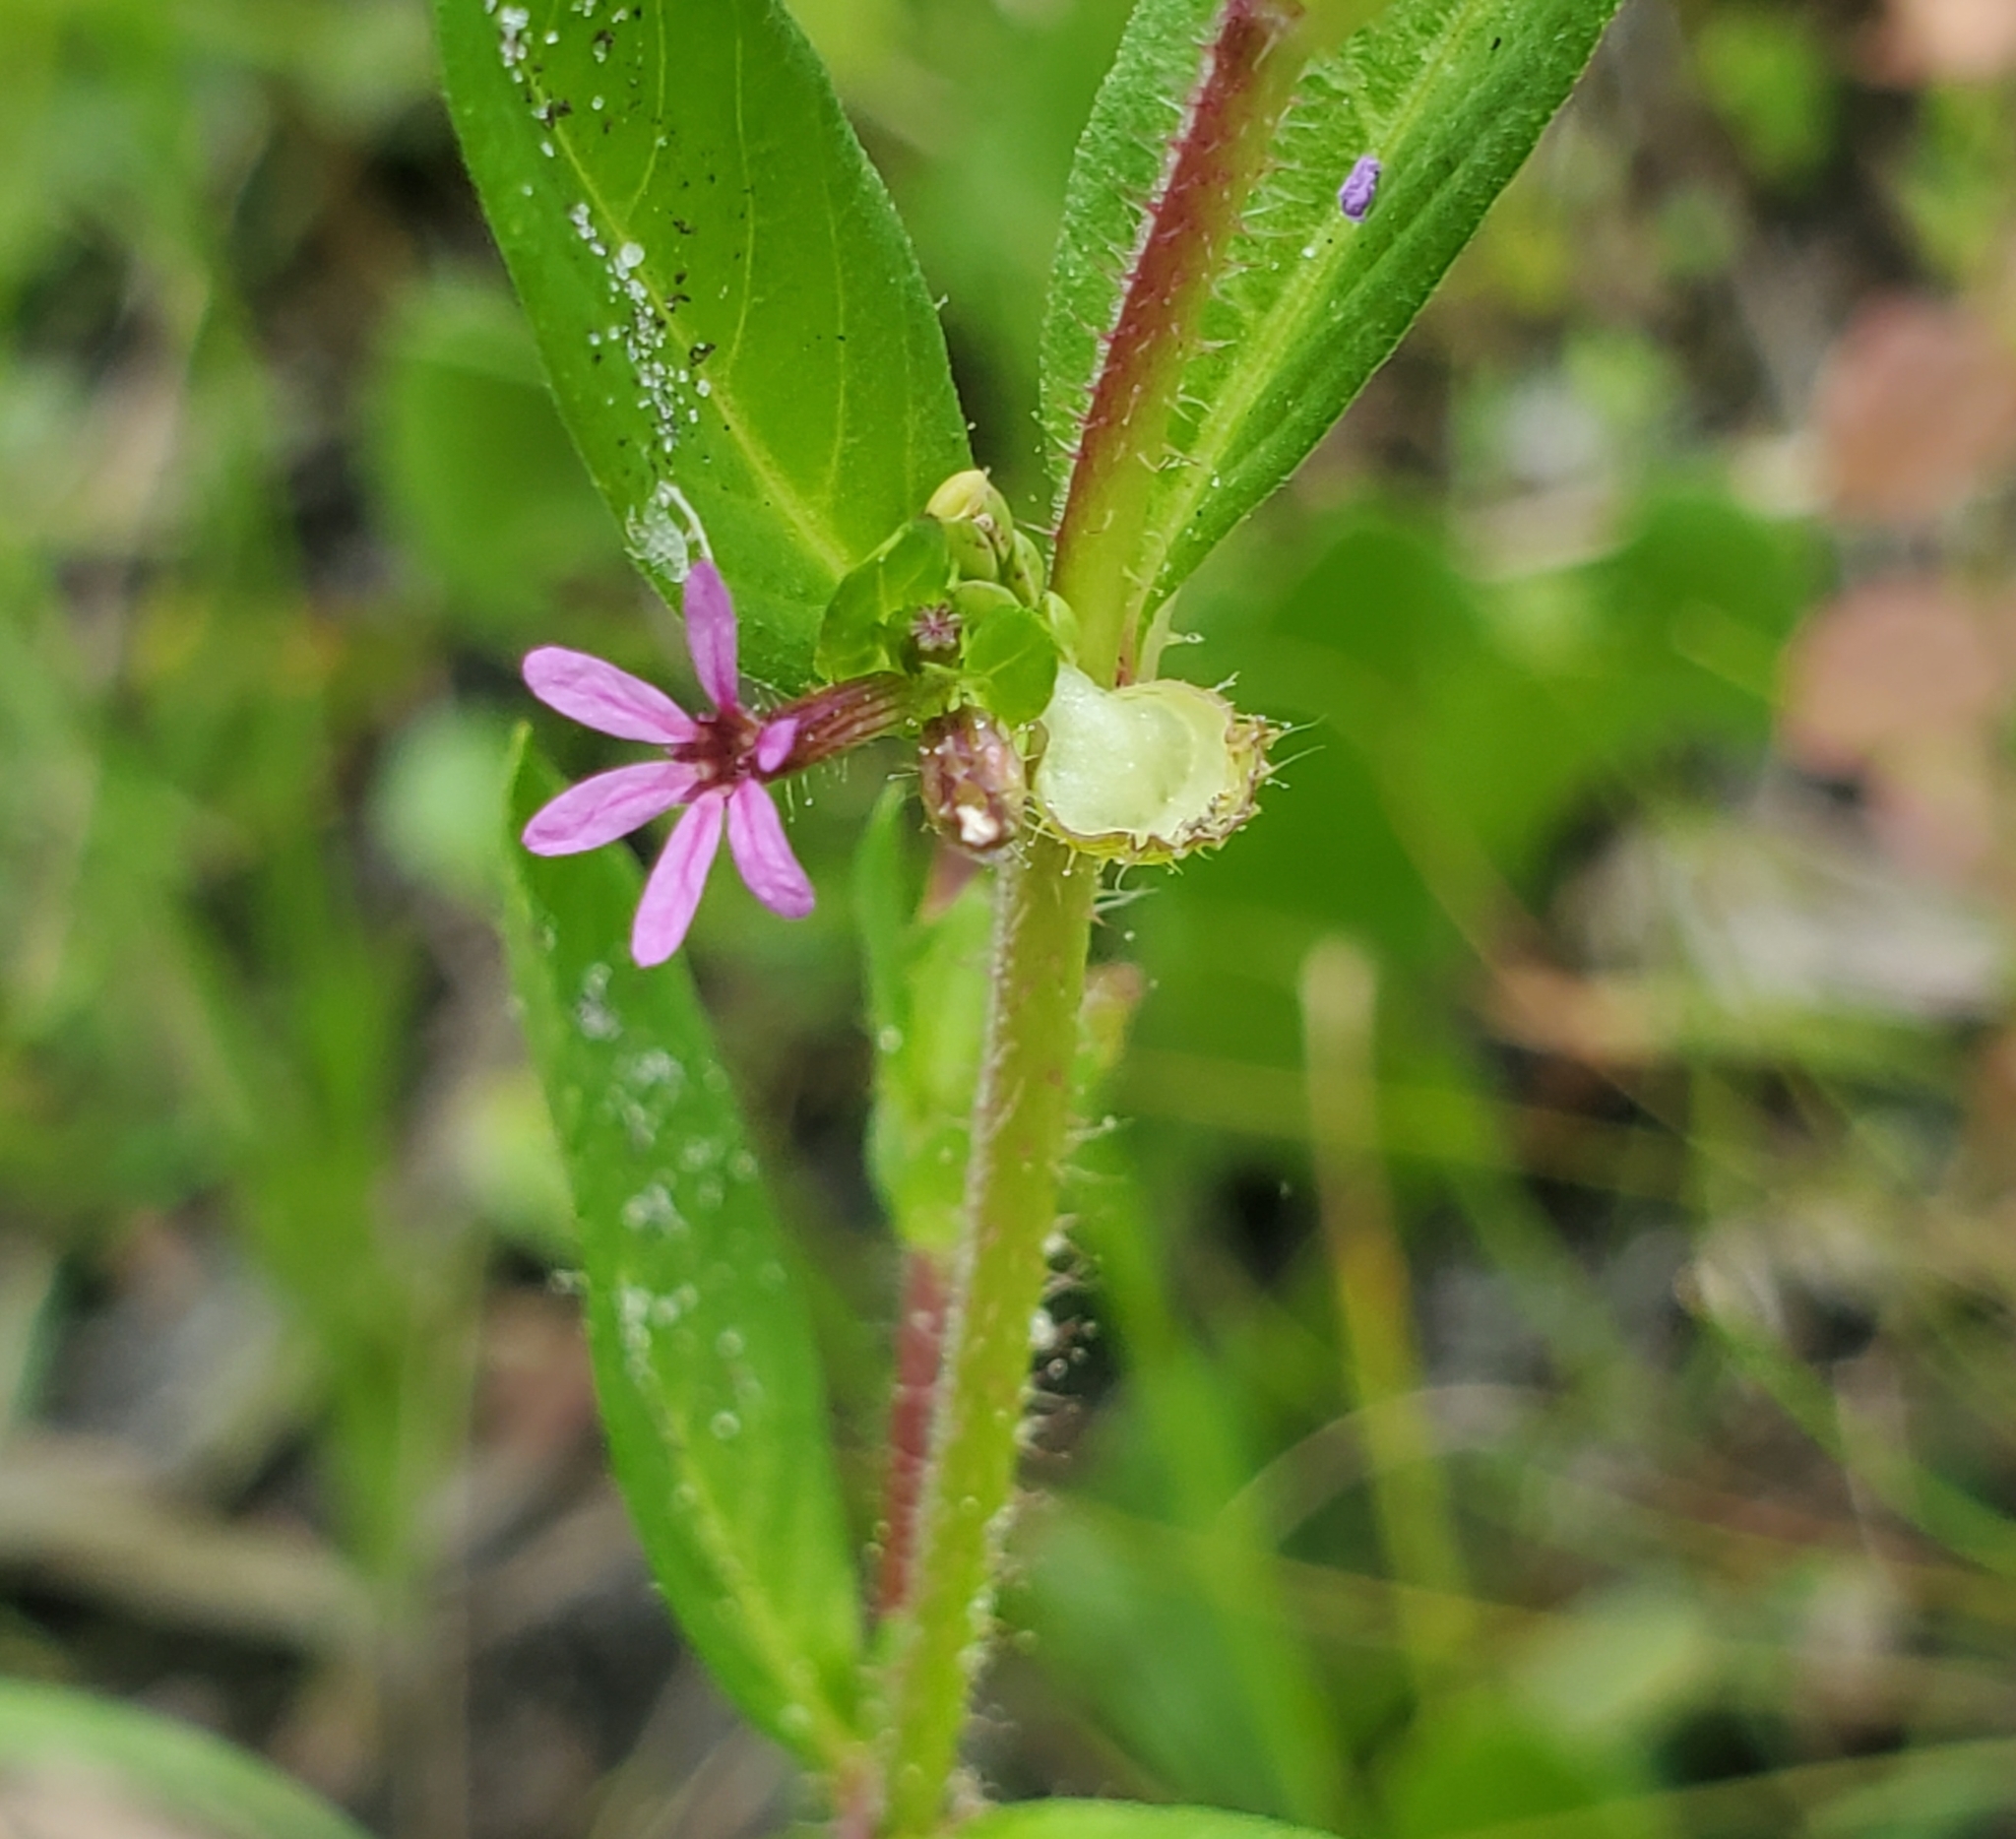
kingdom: Plantae
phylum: Tracheophyta
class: Magnoliopsida
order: Myrtales
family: Lythraceae
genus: Cuphea
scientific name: Cuphea carthagenensis
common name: Colombian waxweed
